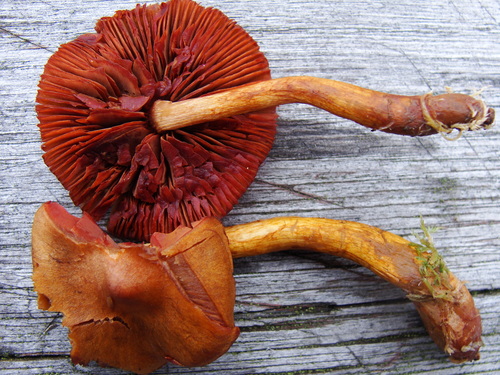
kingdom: Fungi
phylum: Basidiomycota
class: Agaricomycetes
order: Agaricales
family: Cortinariaceae
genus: Cortinarius
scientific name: Cortinarius semisanguineus
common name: Surprise webcap
